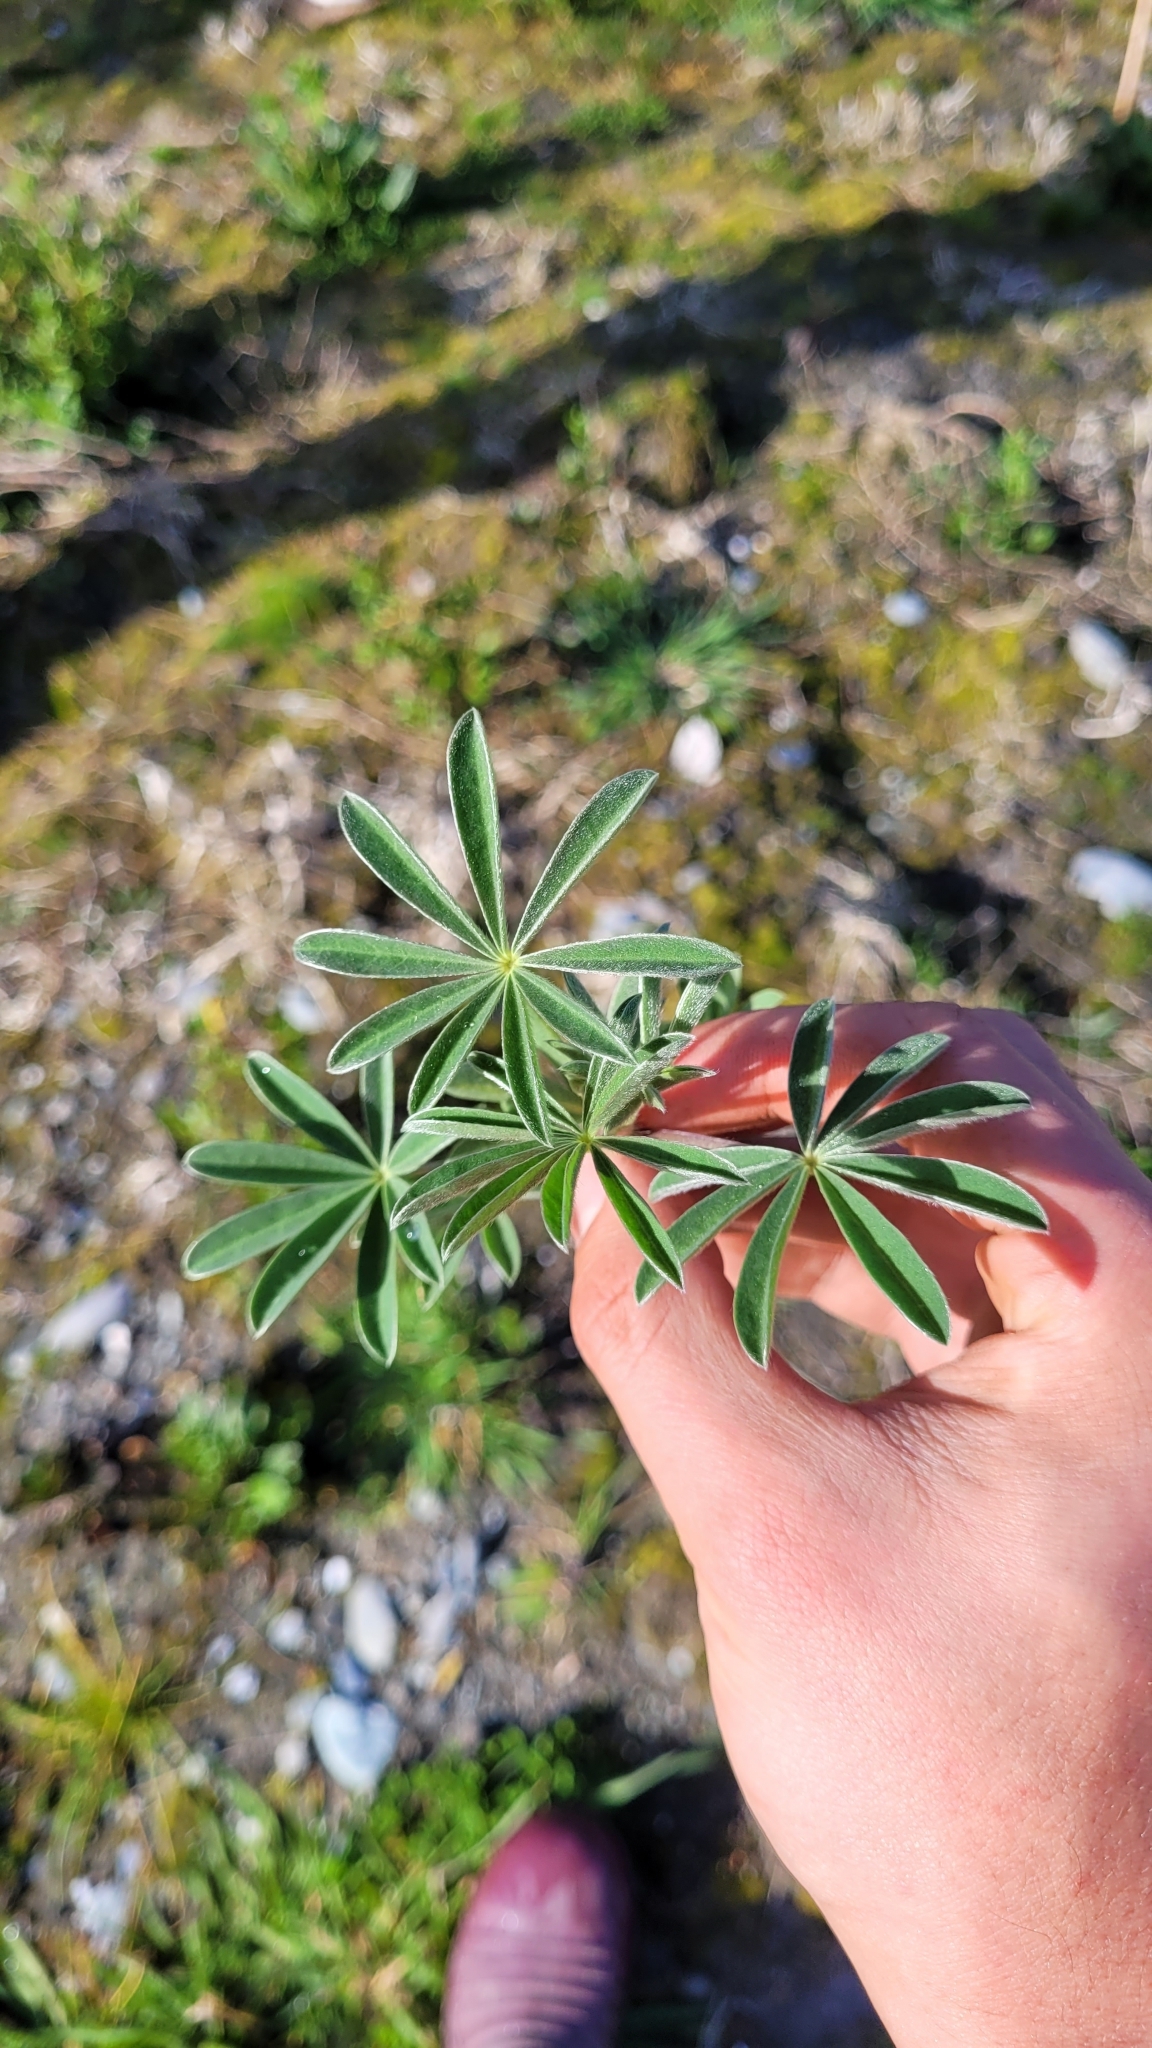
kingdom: Plantae
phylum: Tracheophyta
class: Magnoliopsida
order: Fabales
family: Fabaceae
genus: Lupinus
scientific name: Lupinus arboreus
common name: Yellow bush lupine
